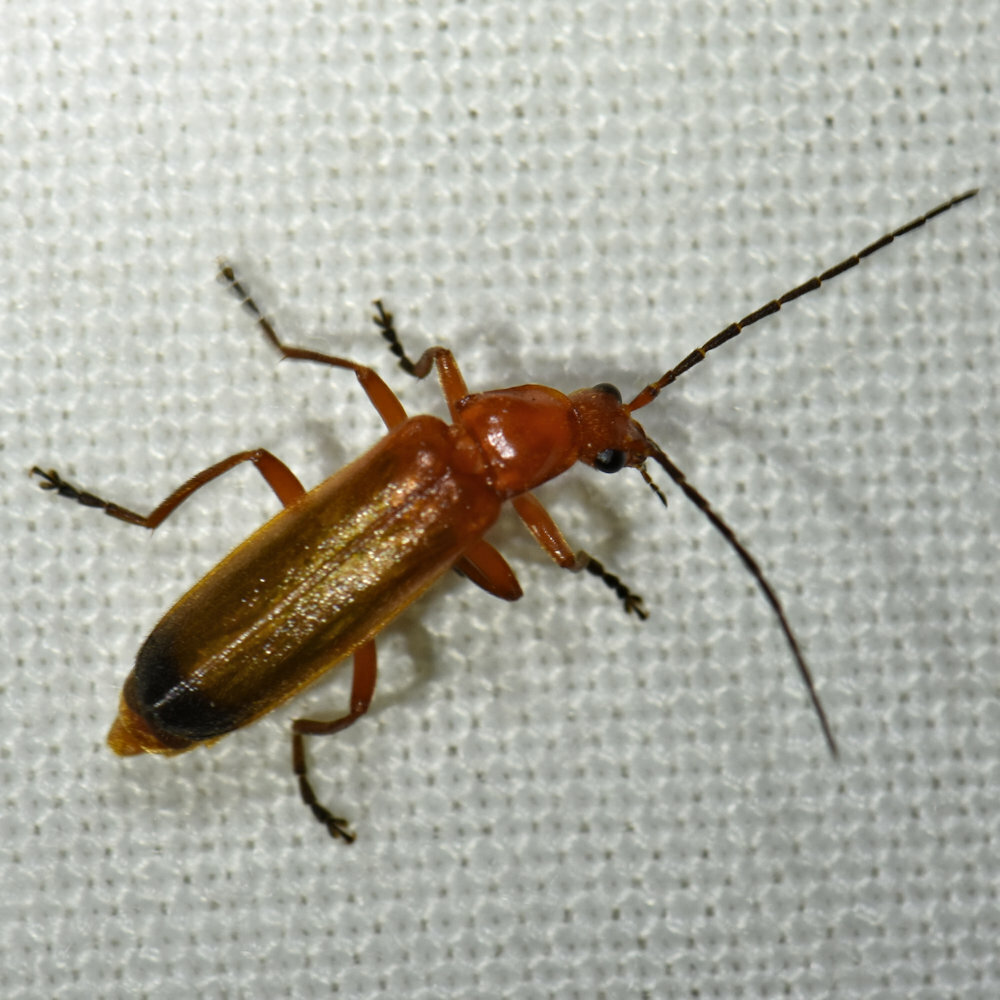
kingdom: Animalia
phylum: Arthropoda
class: Insecta
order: Coleoptera
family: Cantharidae
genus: Rhagonycha
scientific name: Rhagonycha fulva
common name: Common red soldier beetle
